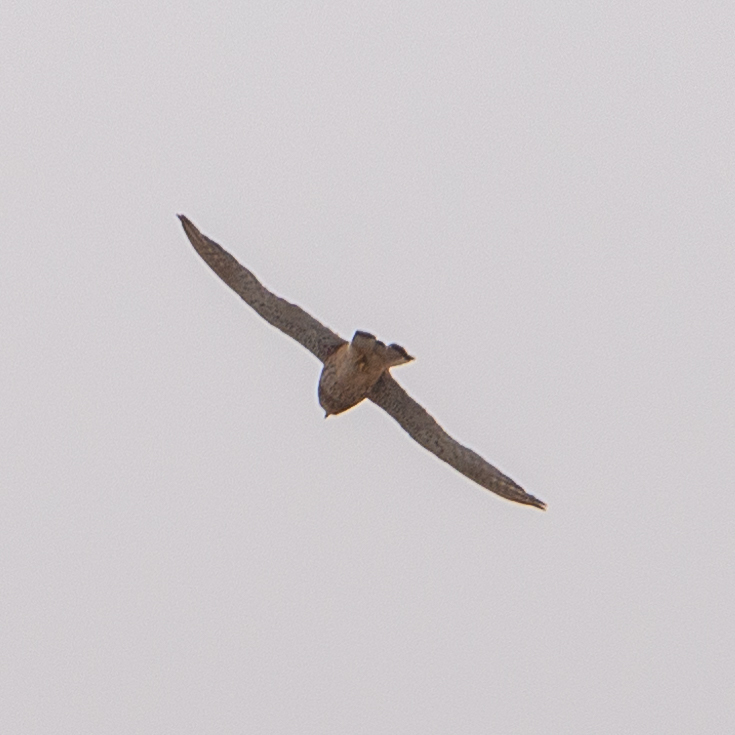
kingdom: Animalia
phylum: Chordata
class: Aves
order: Falconiformes
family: Falconidae
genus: Falco
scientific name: Falco tinnunculus
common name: Common kestrel
